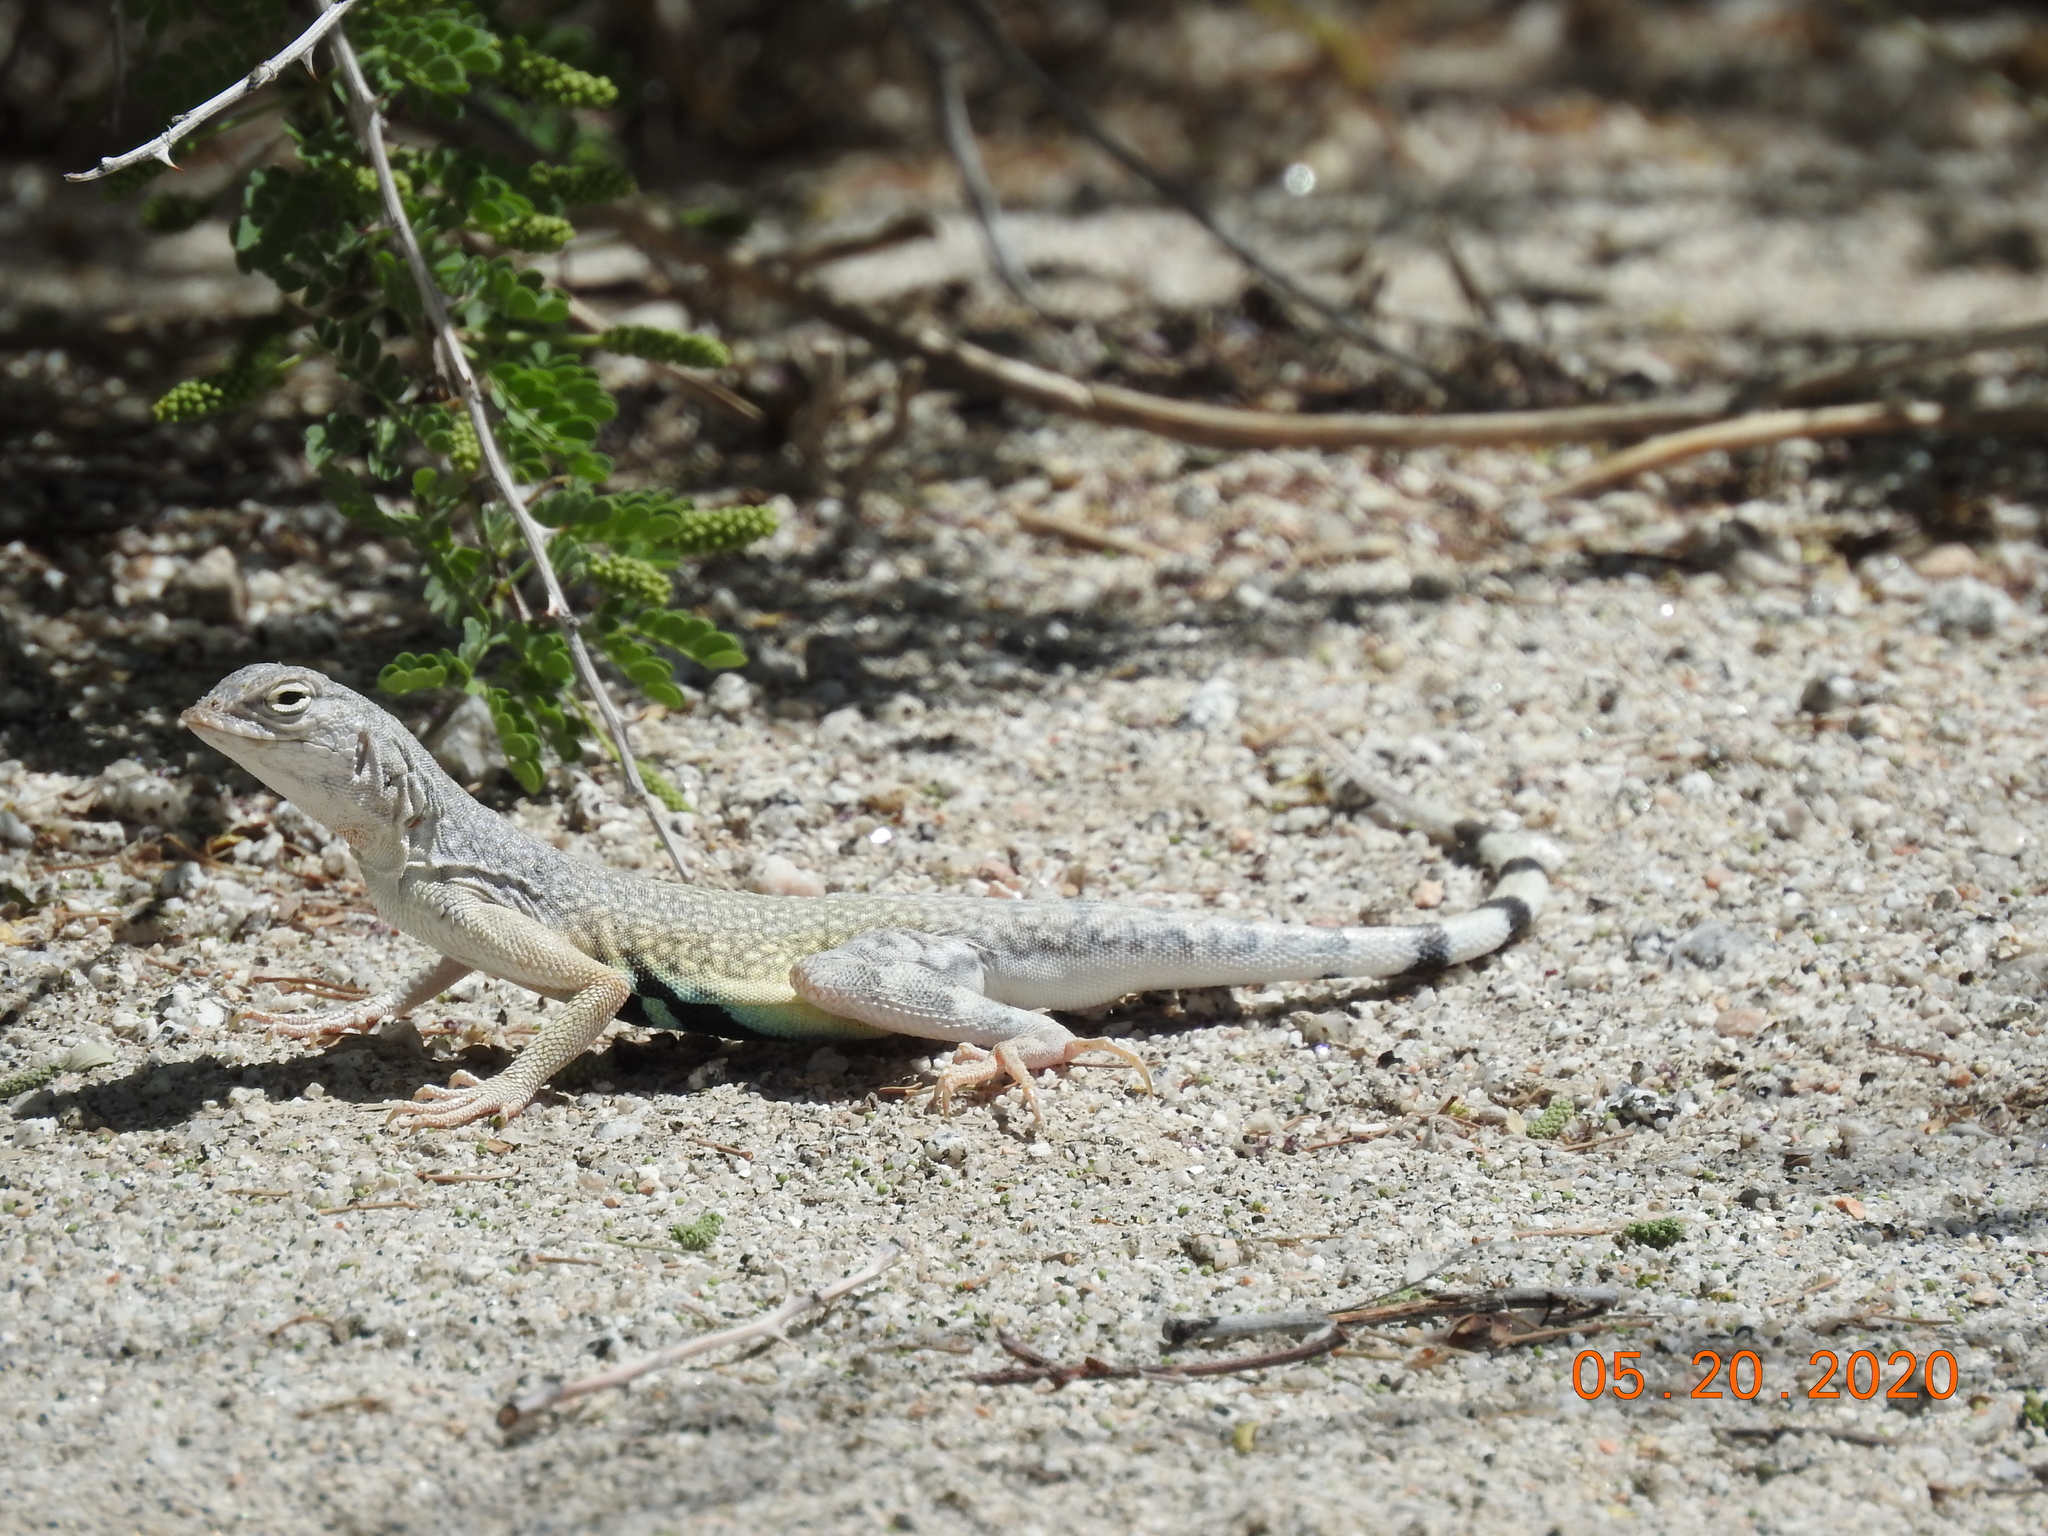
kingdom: Animalia
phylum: Chordata
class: Squamata
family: Phrynosomatidae
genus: Callisaurus
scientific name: Callisaurus draconoides
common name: Zebra-tailed lizard
